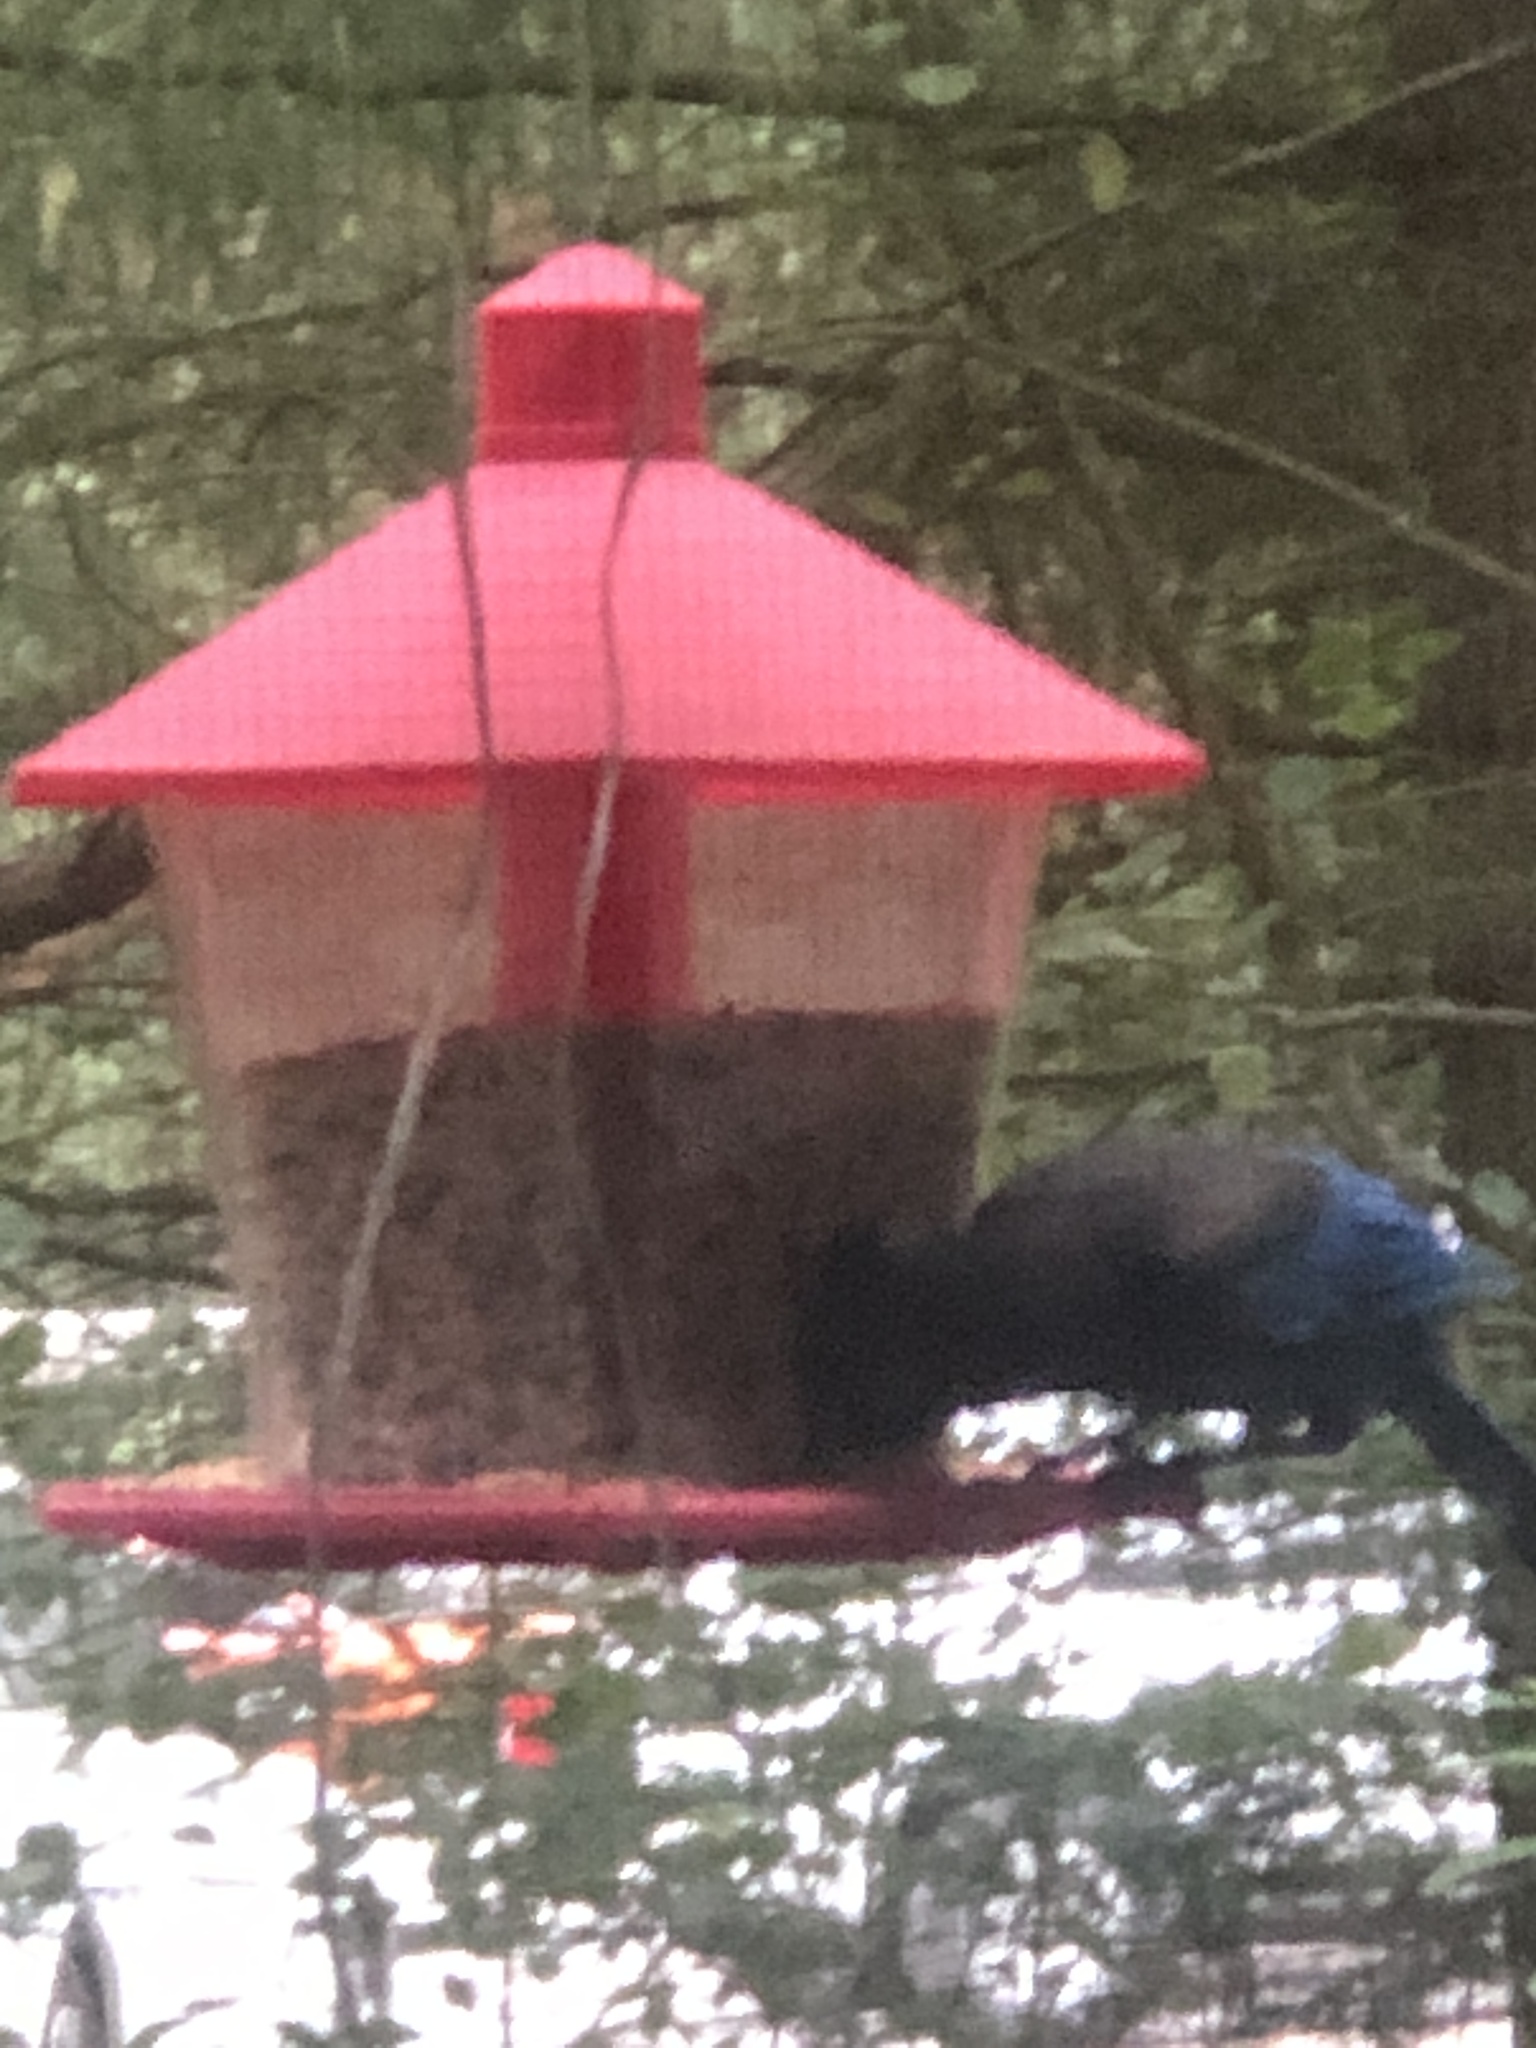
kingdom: Animalia
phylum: Chordata
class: Aves
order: Passeriformes
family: Corvidae
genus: Cyanocitta
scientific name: Cyanocitta stelleri
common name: Steller's jay
